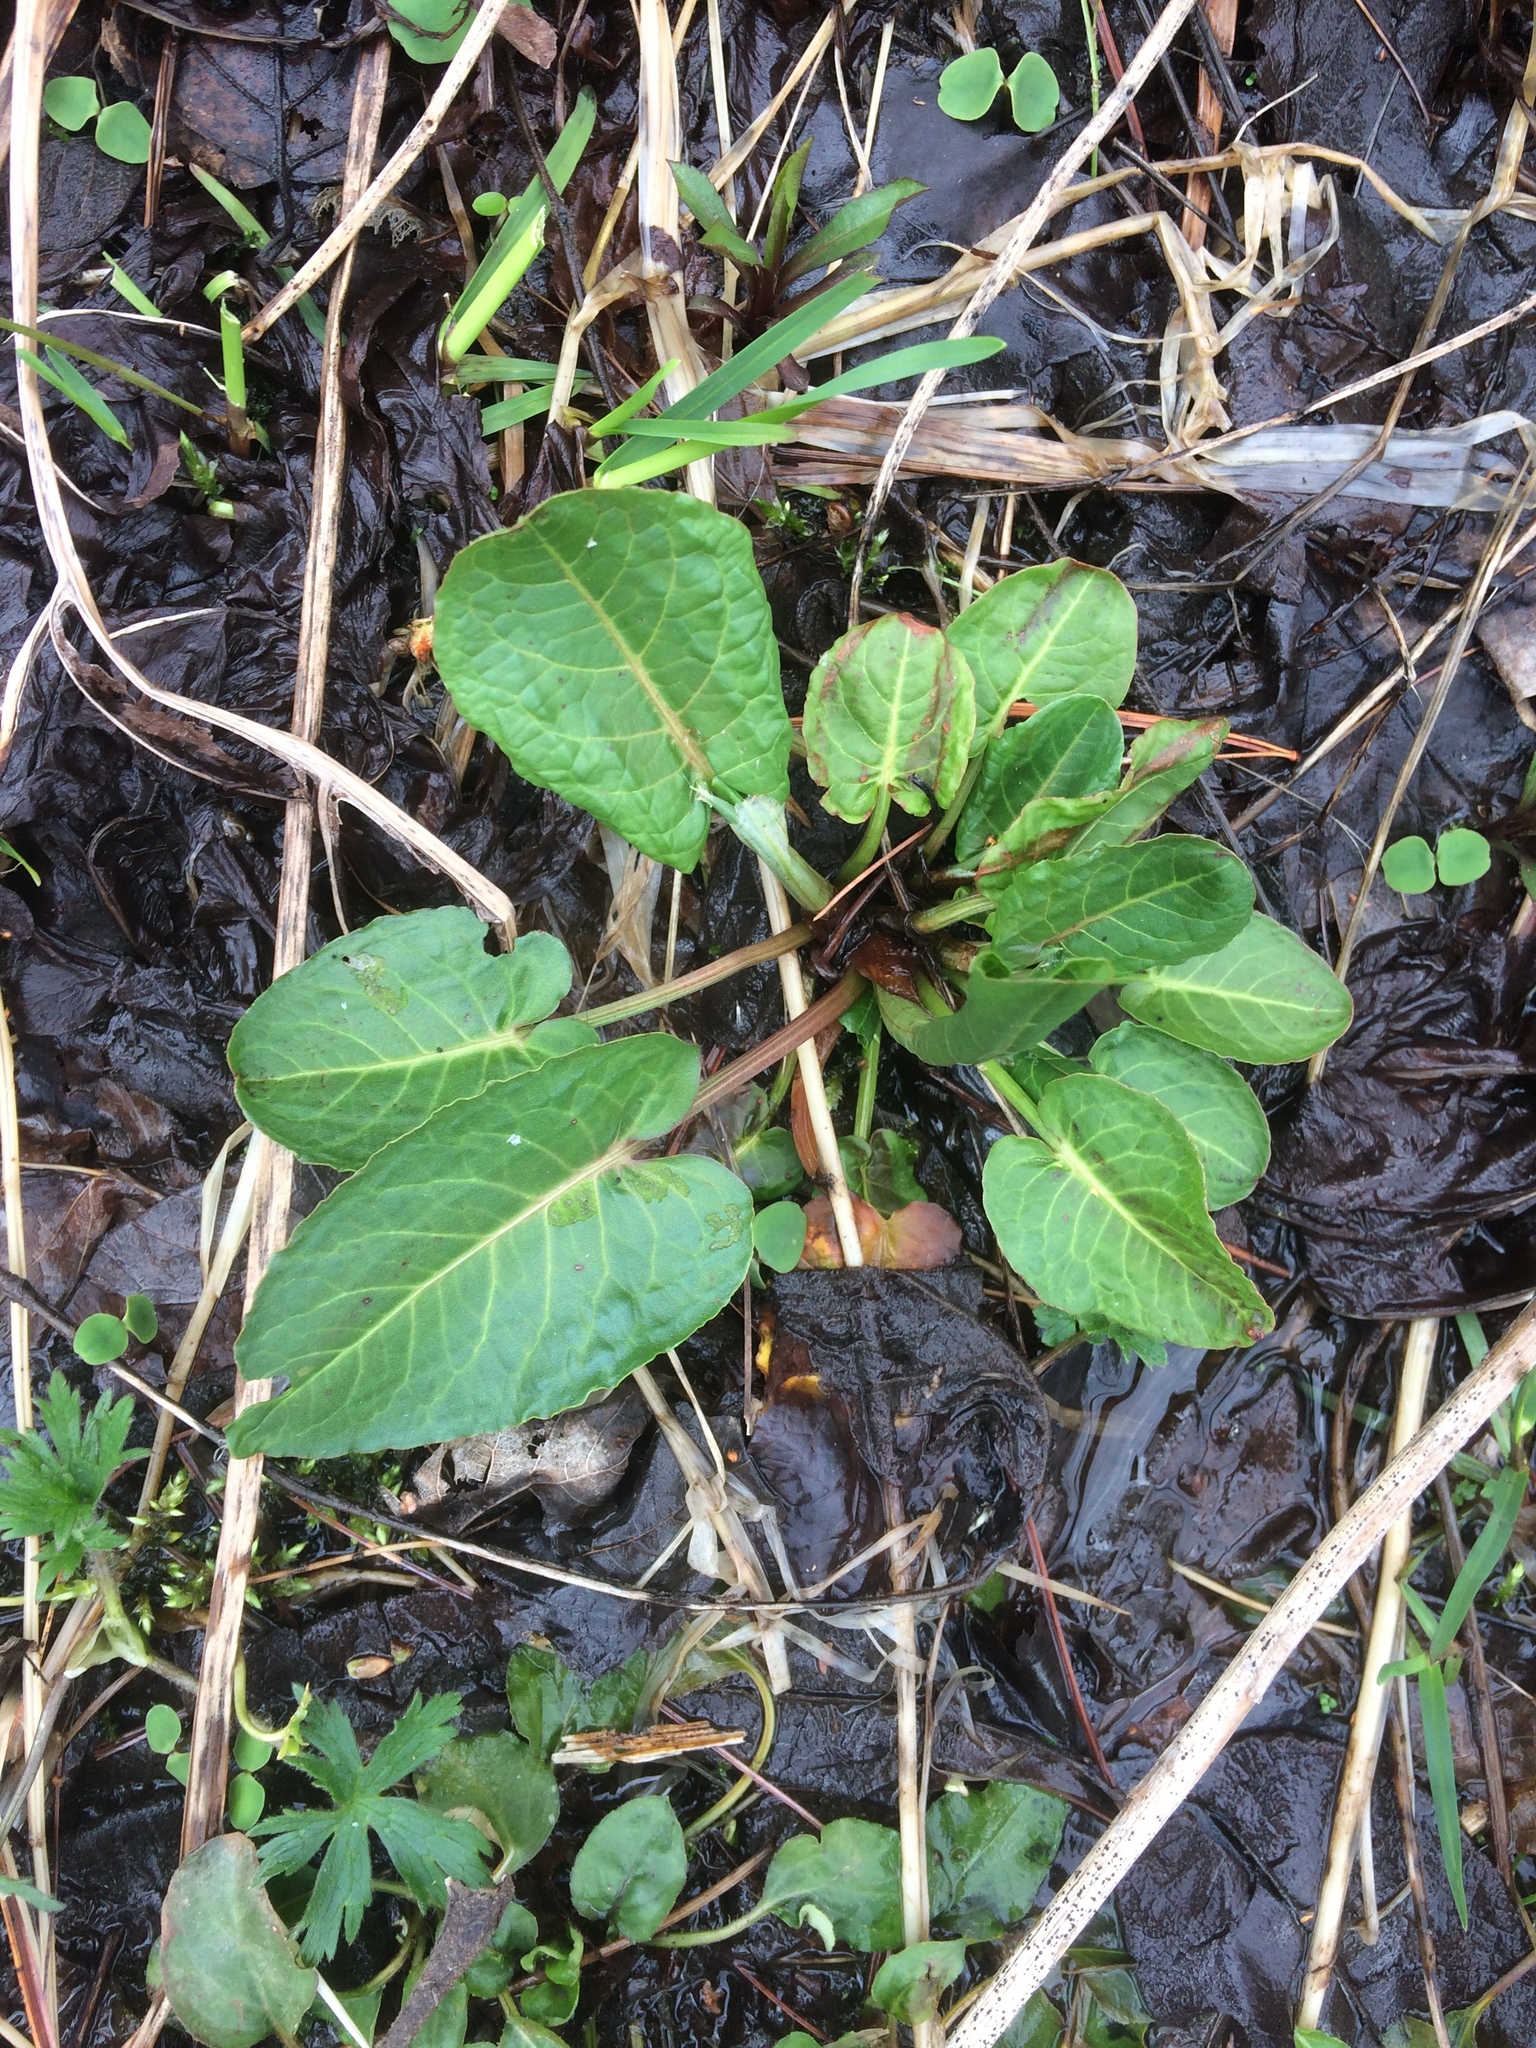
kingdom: Plantae
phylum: Tracheophyta
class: Magnoliopsida
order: Caryophyllales
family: Polygonaceae
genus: Rumex
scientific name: Rumex obtusifolius
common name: Bitter dock
